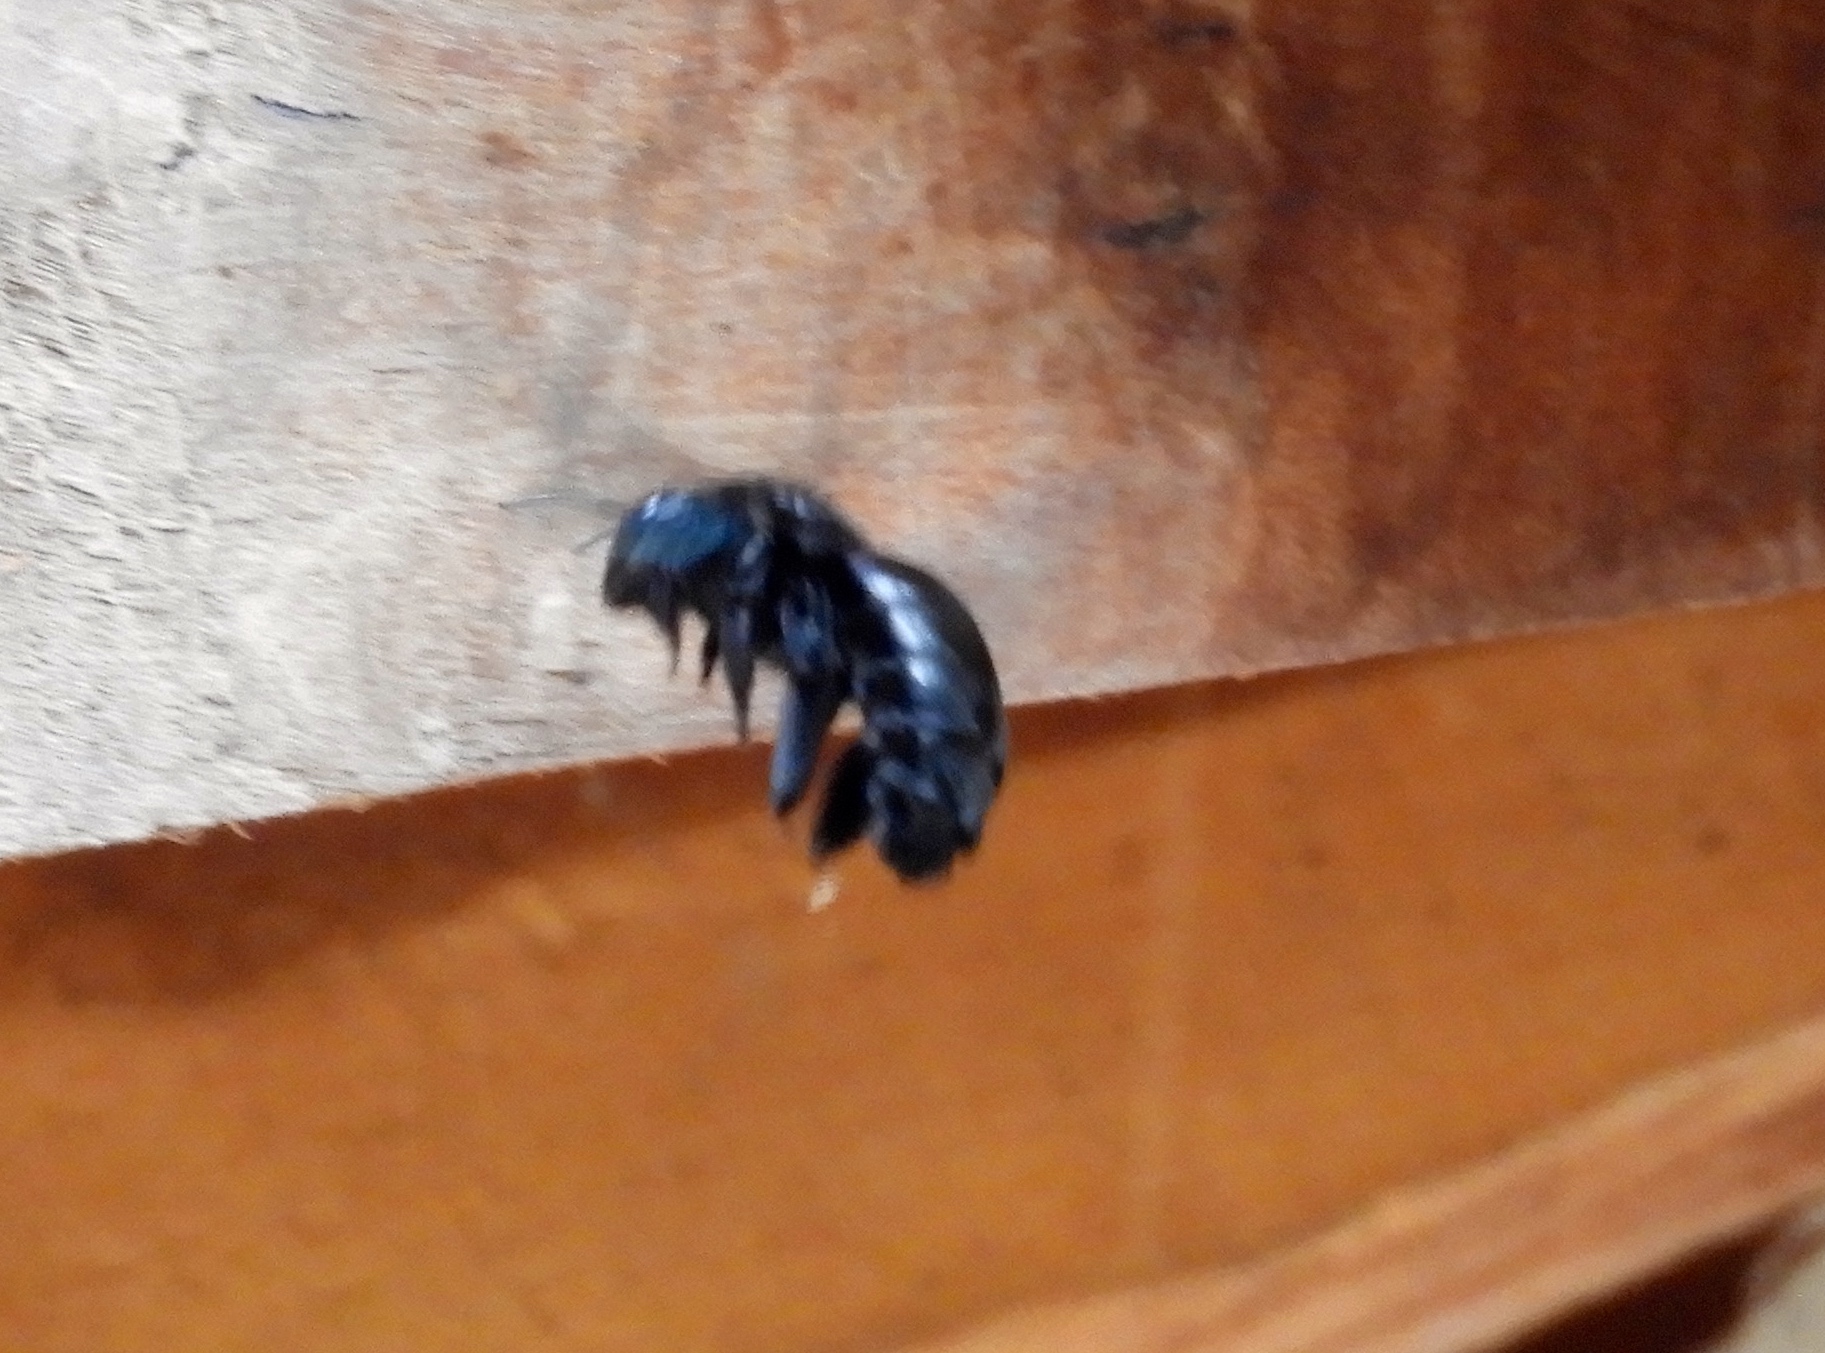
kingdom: Animalia
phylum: Arthropoda
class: Insecta
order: Hymenoptera
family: Apidae
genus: Xylocopa
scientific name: Xylocopa
